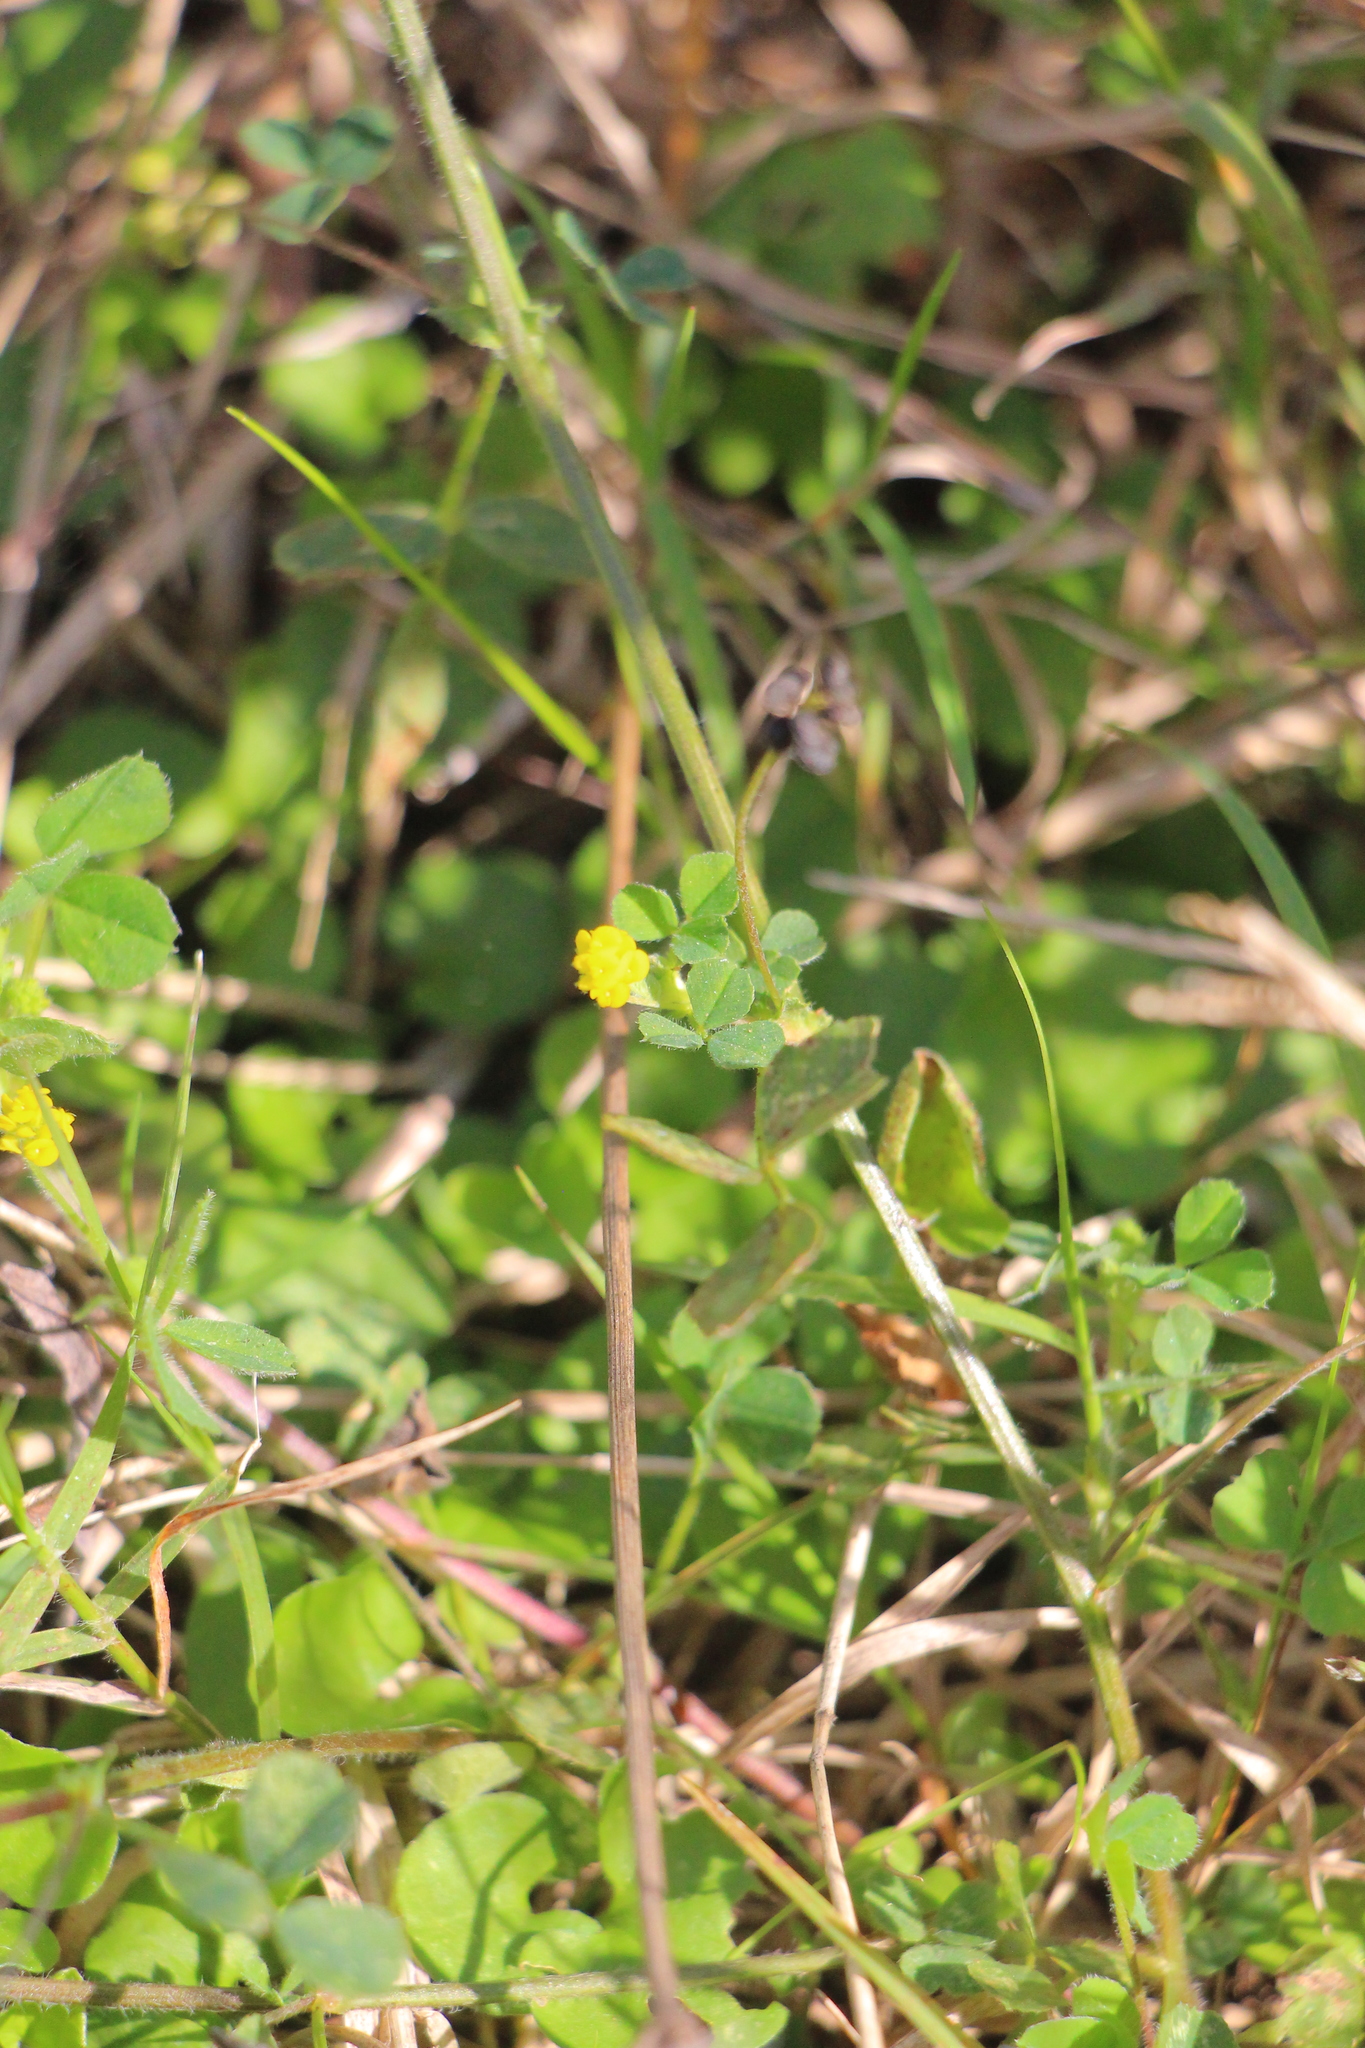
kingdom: Plantae
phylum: Tracheophyta
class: Magnoliopsida
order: Fabales
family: Fabaceae
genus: Medicago
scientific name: Medicago lupulina
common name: Black medick
